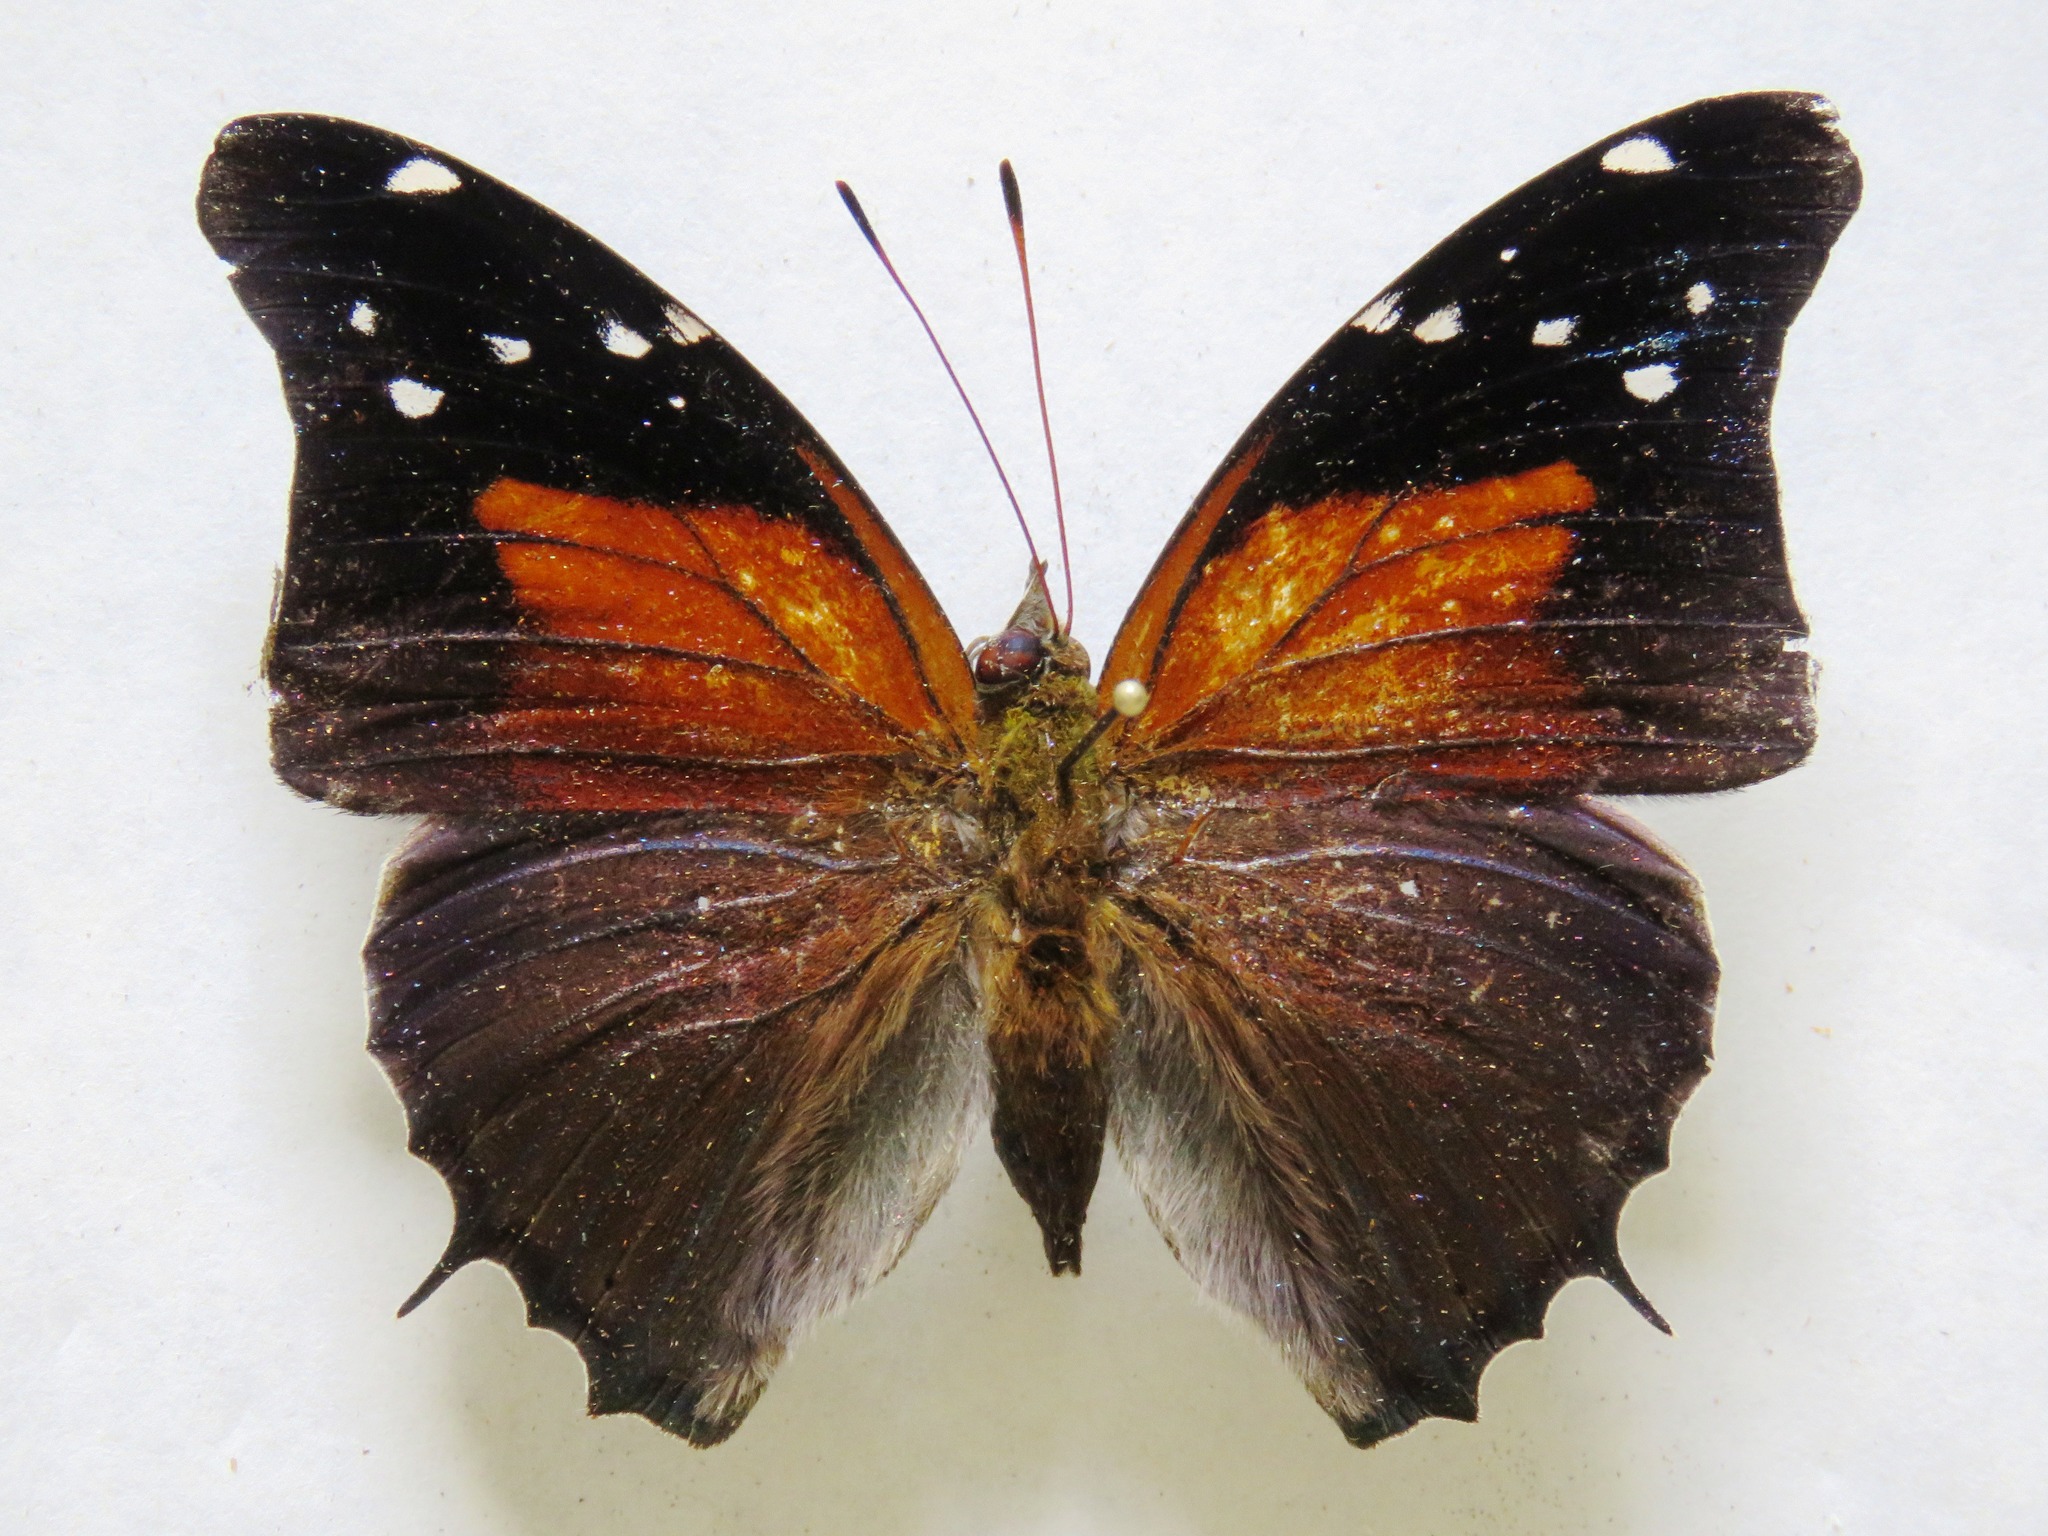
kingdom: Animalia
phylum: Arthropoda
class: Insecta
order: Lepidoptera
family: Nymphalidae
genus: Coea
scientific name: Coea acheronta
